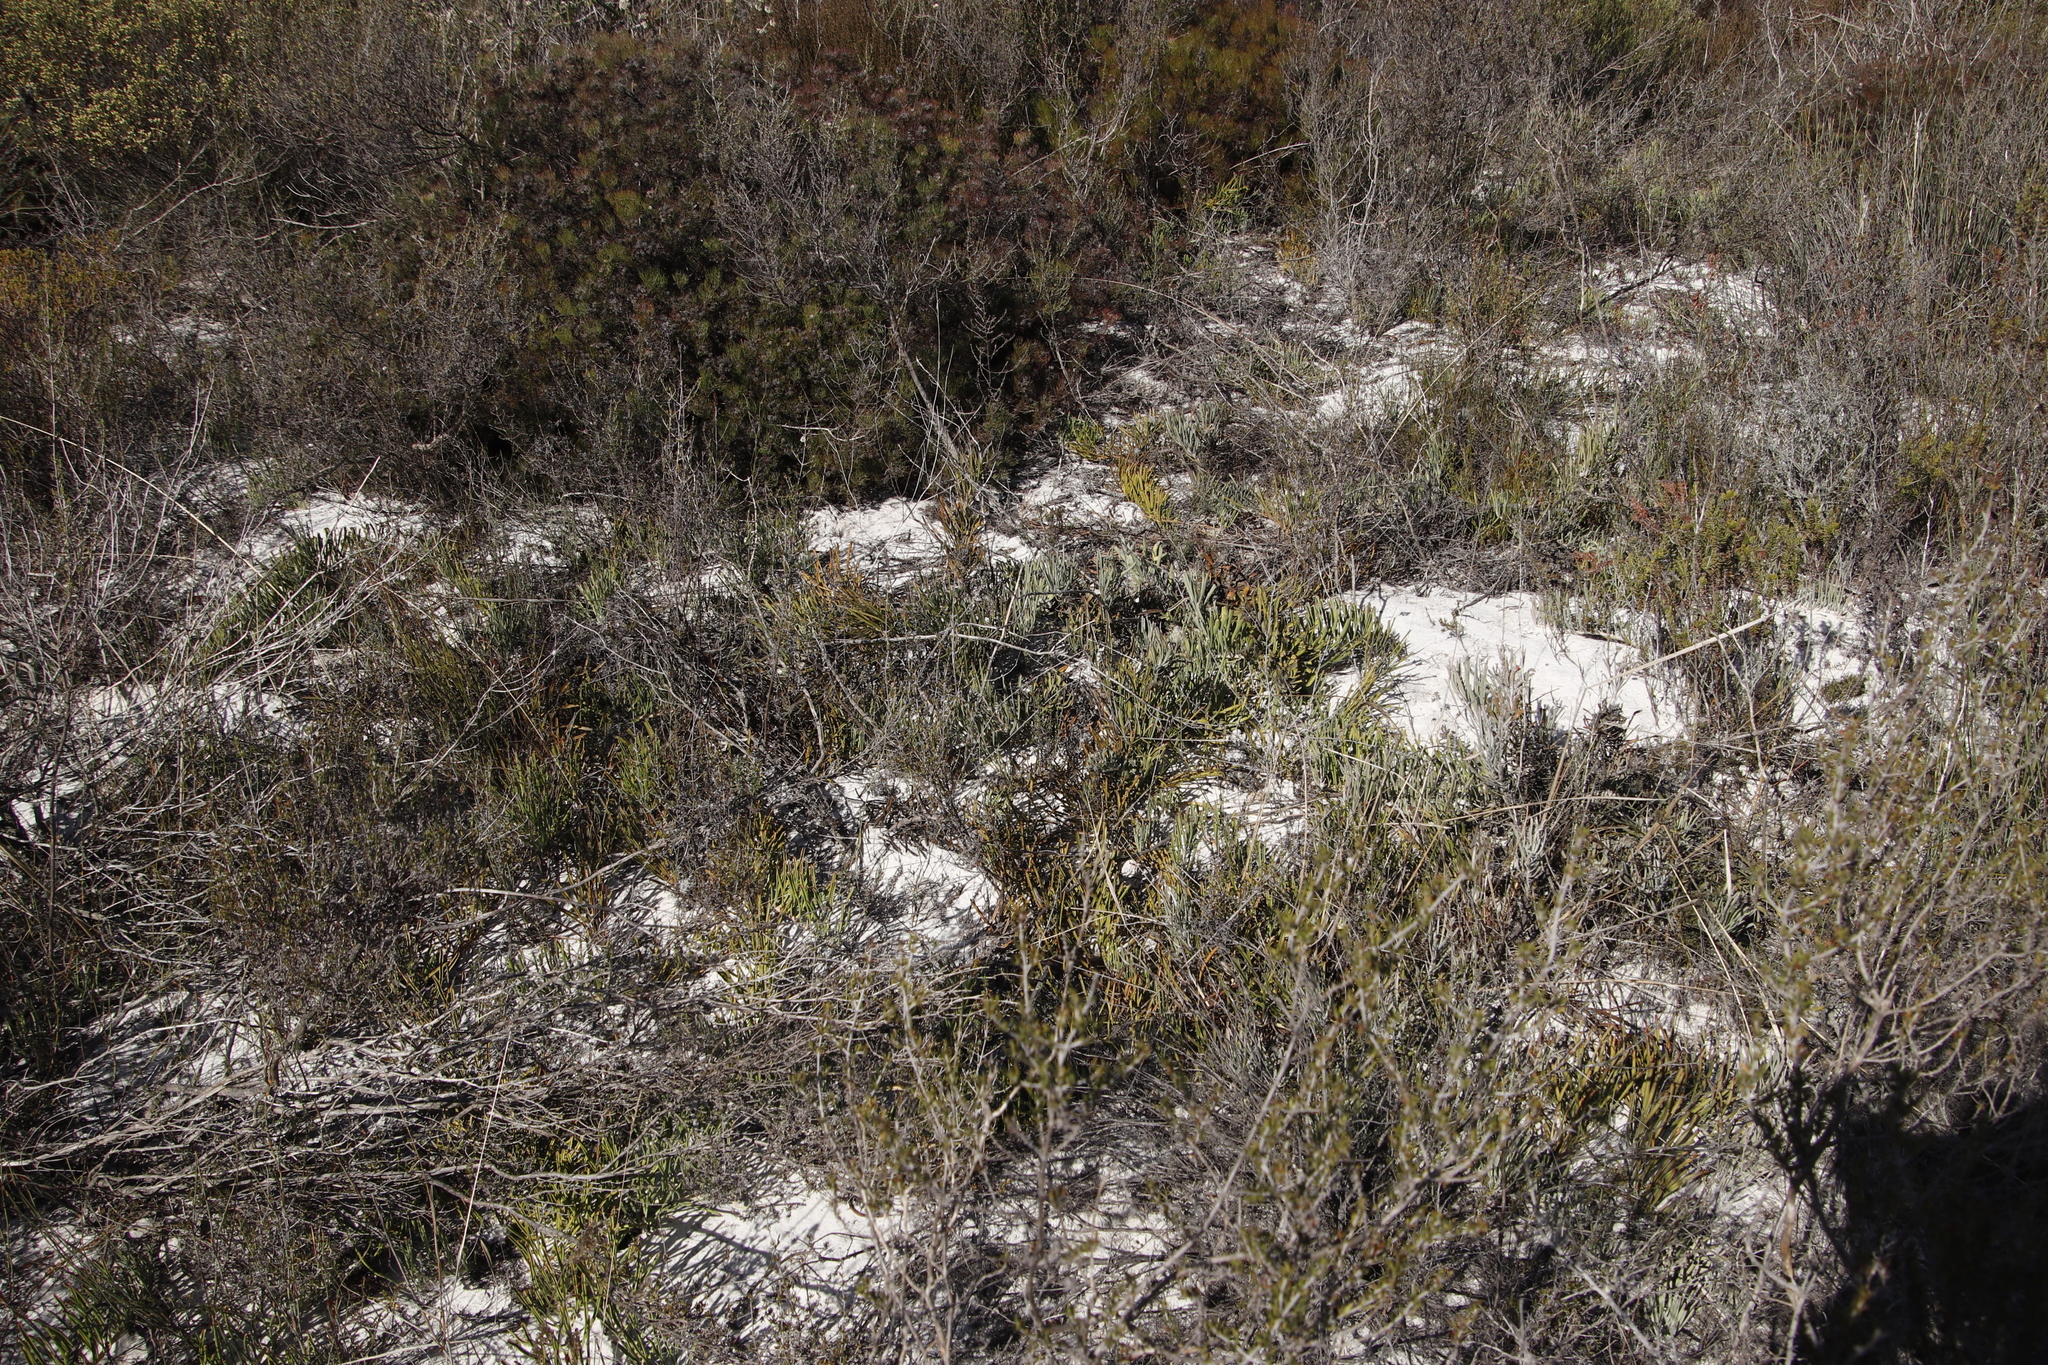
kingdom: Plantae
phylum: Tracheophyta
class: Magnoliopsida
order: Proteales
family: Proteaceae
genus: Leucospermum
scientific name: Leucospermum hypophyllocarpodendron
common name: Snakestem pincushion
